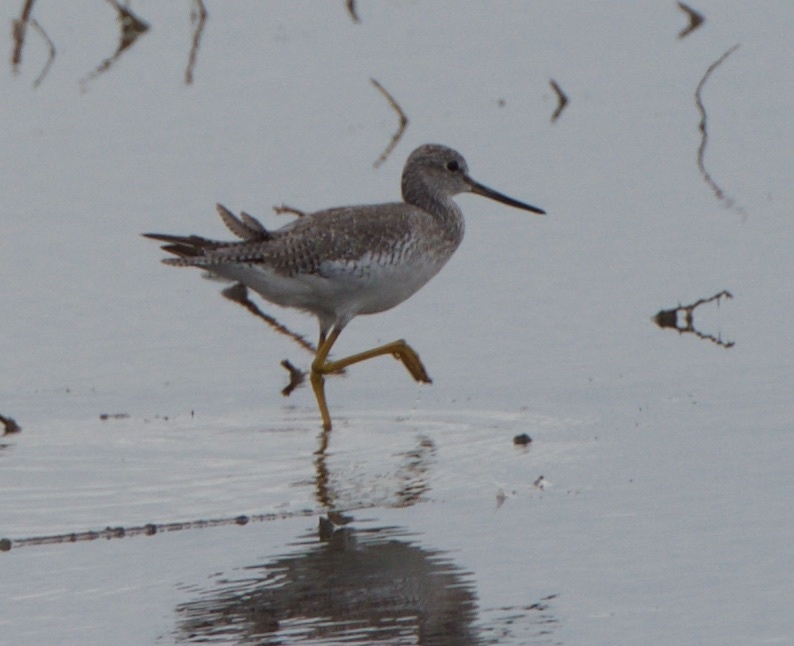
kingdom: Animalia
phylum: Chordata
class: Aves
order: Charadriiformes
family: Scolopacidae
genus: Tringa
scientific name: Tringa melanoleuca
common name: Greater yellowlegs
